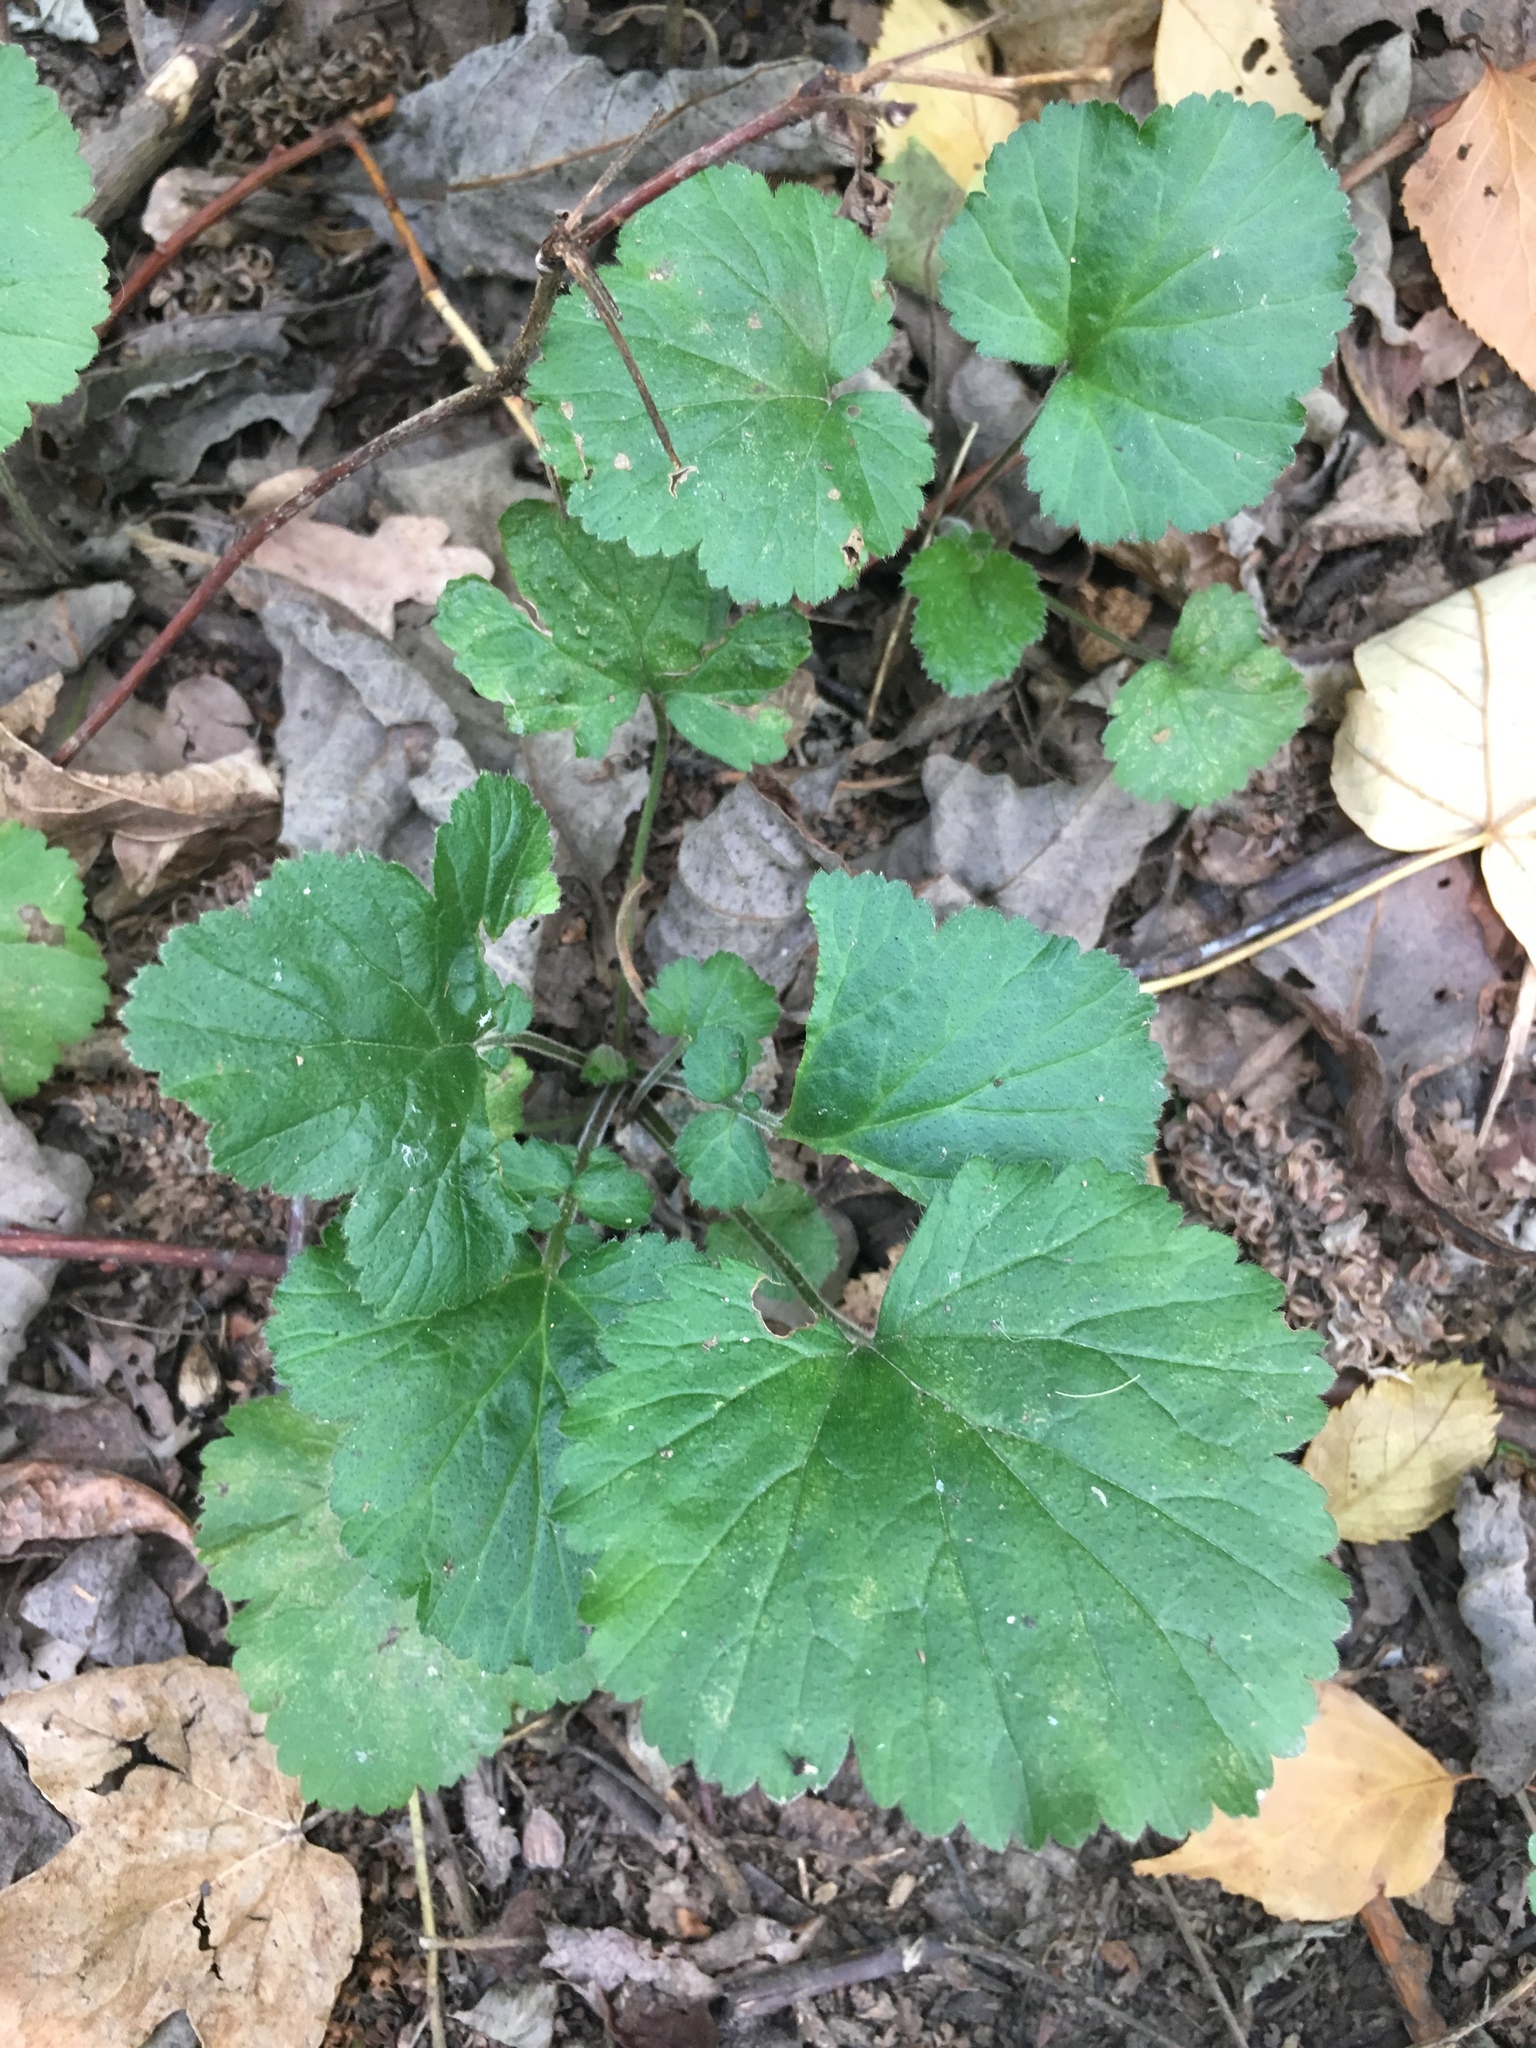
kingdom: Plantae
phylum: Tracheophyta
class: Magnoliopsida
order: Rosales
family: Rosaceae
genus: Geum
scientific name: Geum urbanum
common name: Wood avens
